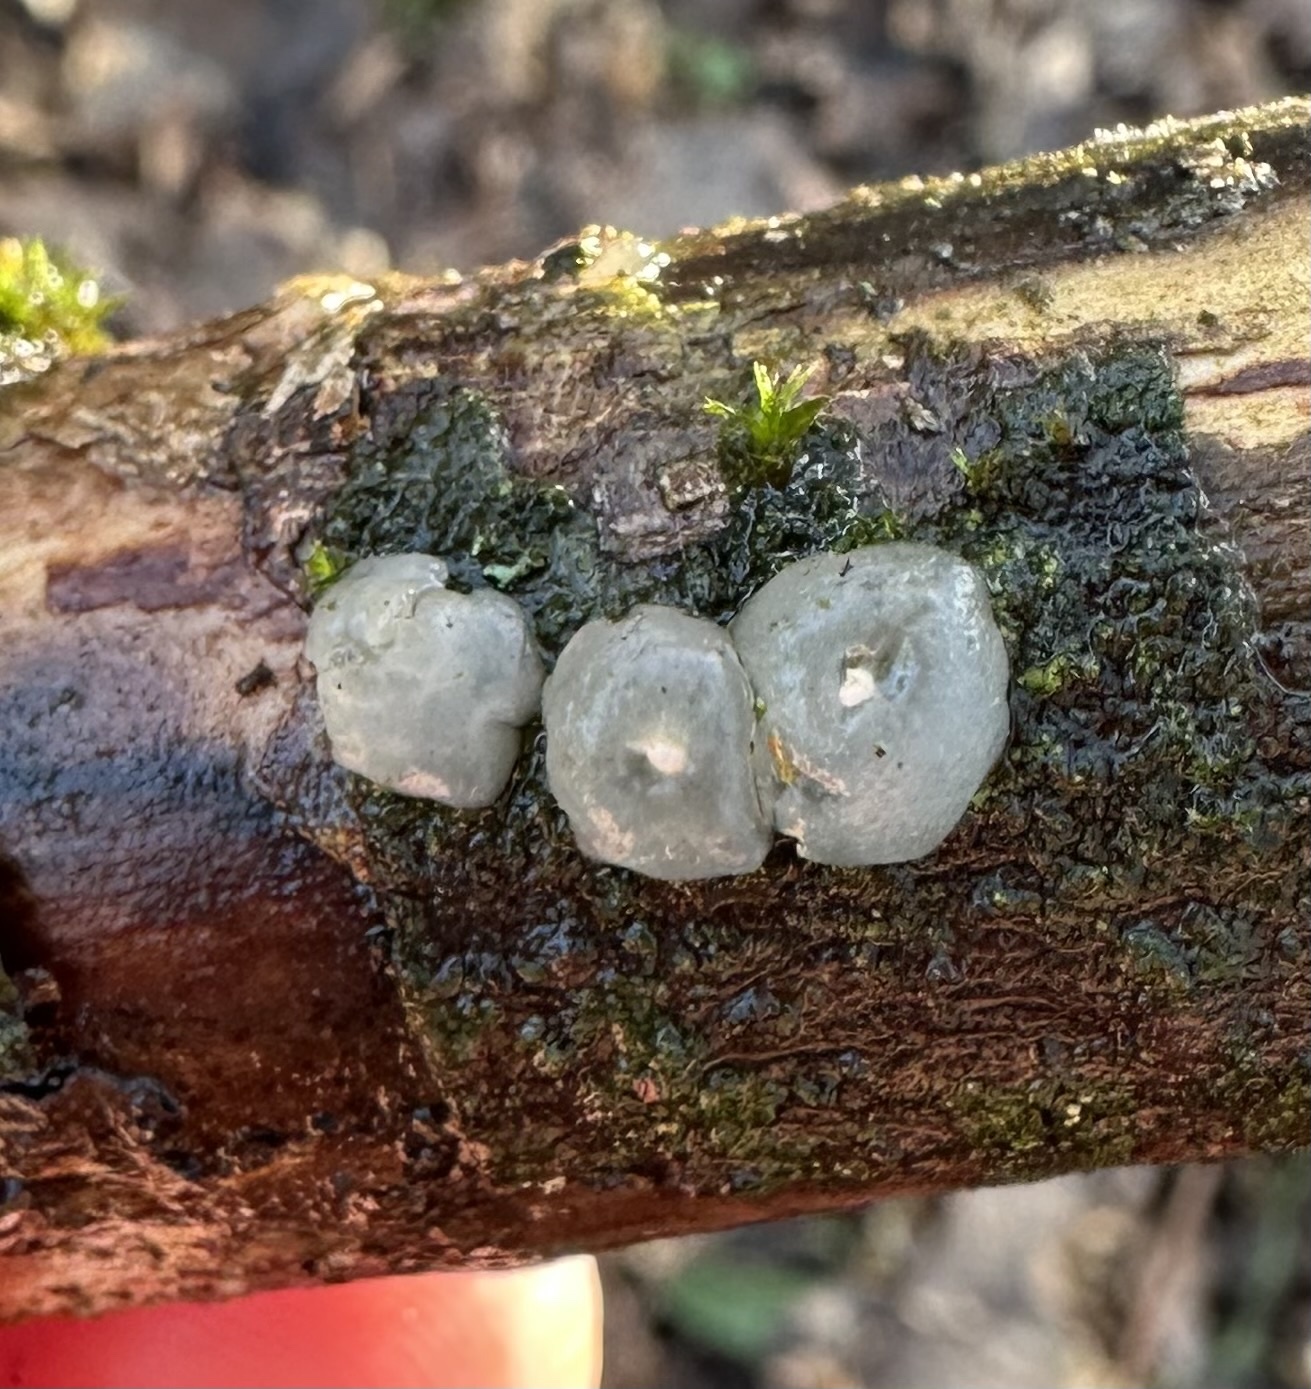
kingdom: Fungi
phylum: Basidiomycota
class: Agaricomycetes
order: Auriculariales
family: Hyaloriaceae
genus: Myxarium
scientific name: Myxarium nucleatum
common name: Crystal brain fungus
